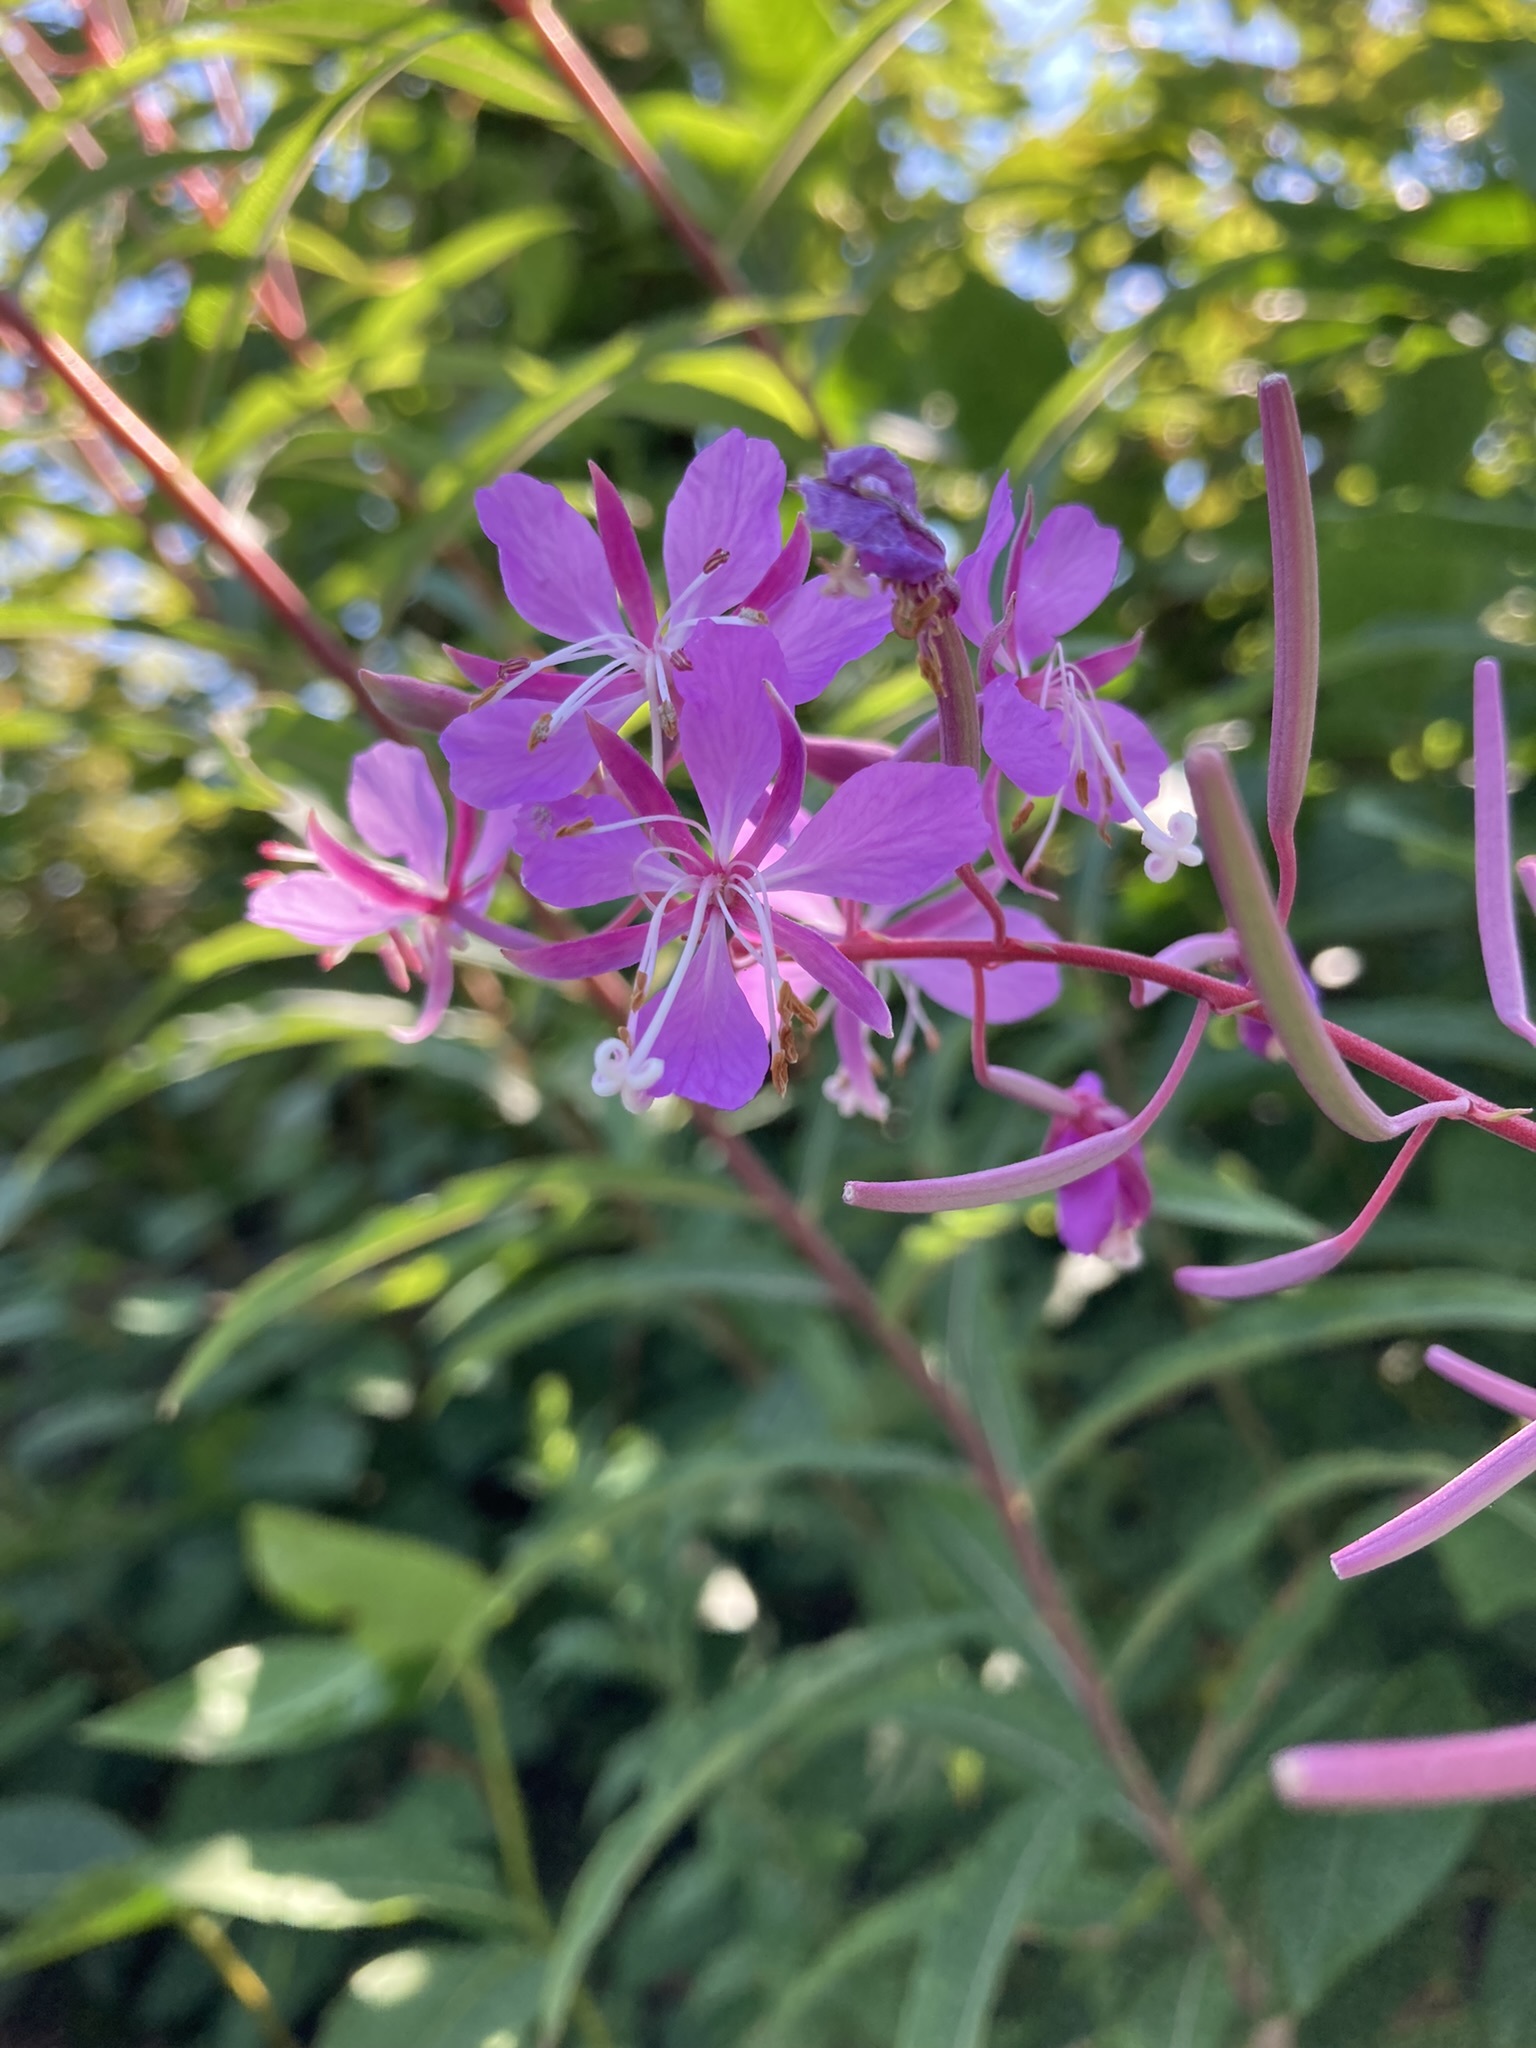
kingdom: Plantae
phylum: Tracheophyta
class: Magnoliopsida
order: Myrtales
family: Onagraceae
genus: Chamaenerion
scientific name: Chamaenerion angustifolium
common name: Fireweed
